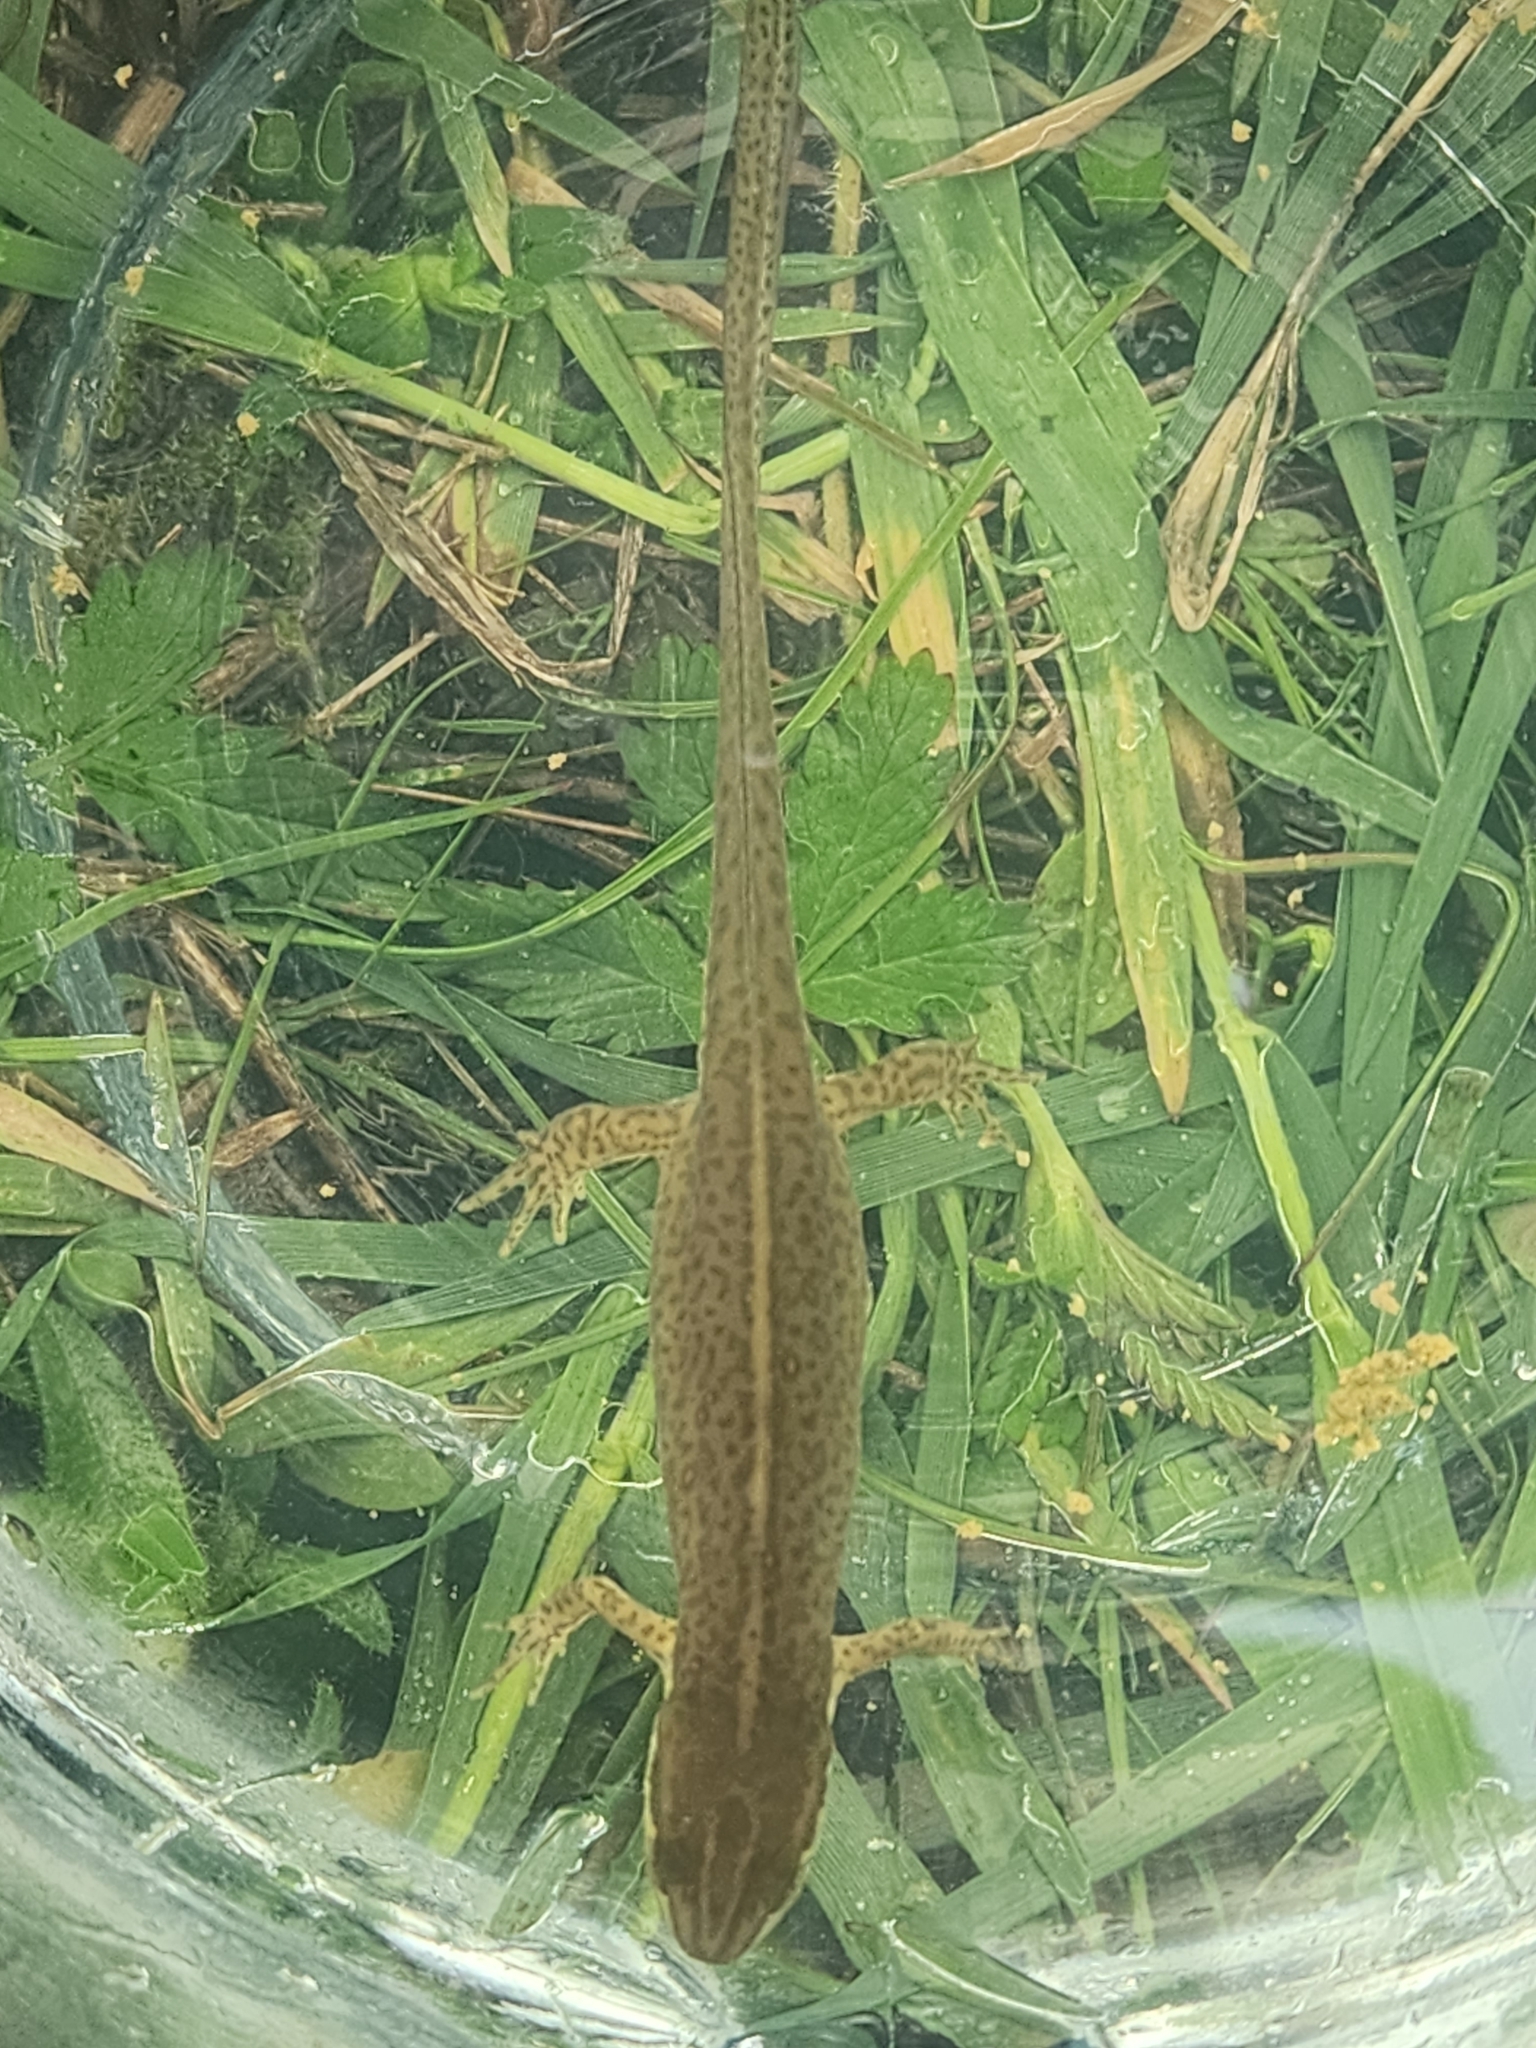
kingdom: Animalia
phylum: Chordata
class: Amphibia
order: Caudata
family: Salamandridae
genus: Notophthalmus
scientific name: Notophthalmus viridescens
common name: Eastern newt
